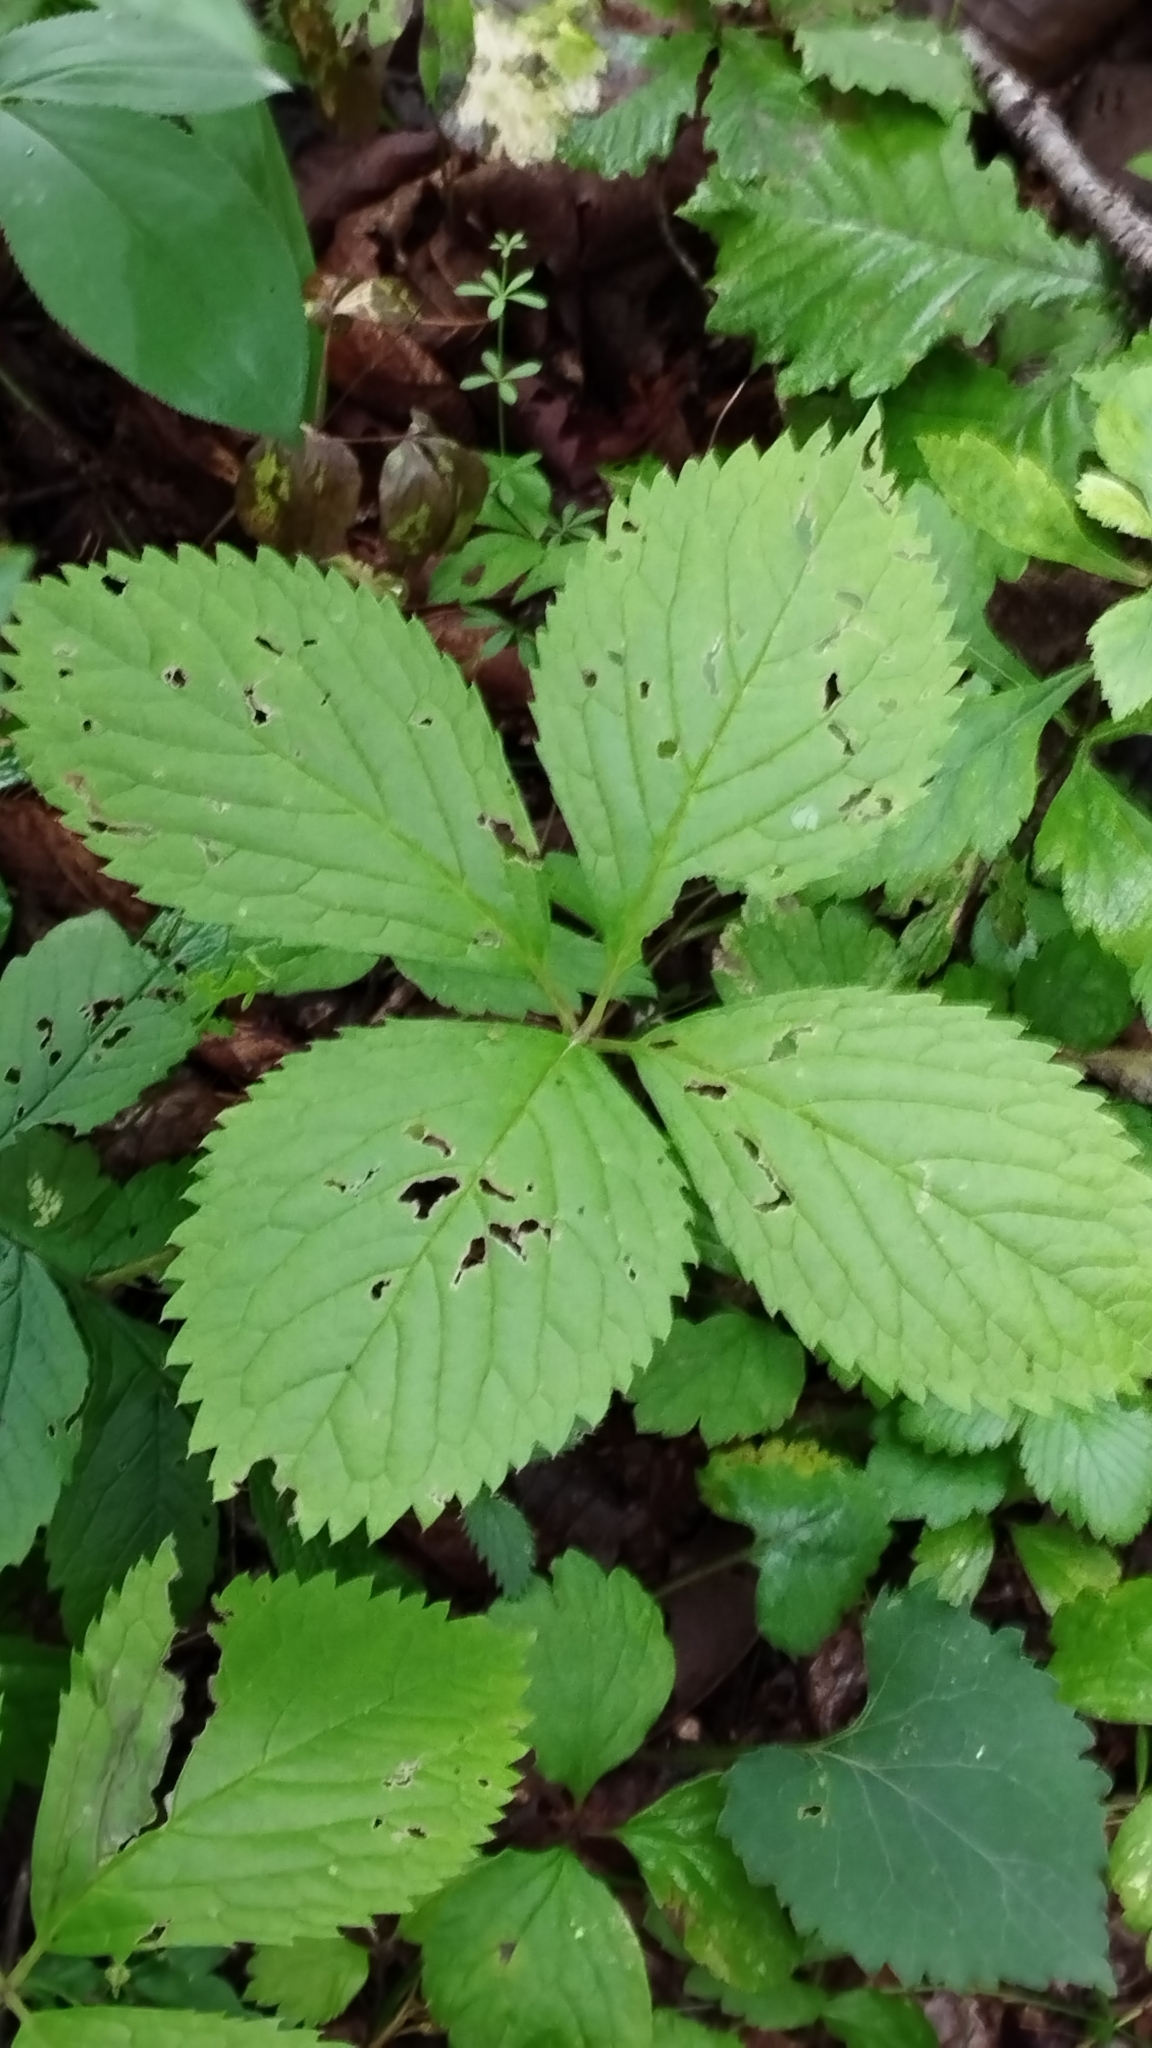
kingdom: Plantae
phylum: Tracheophyta
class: Magnoliopsida
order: Chloranthales
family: Chloranthaceae
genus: Chloranthus
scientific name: Chloranthus quadrifolius
